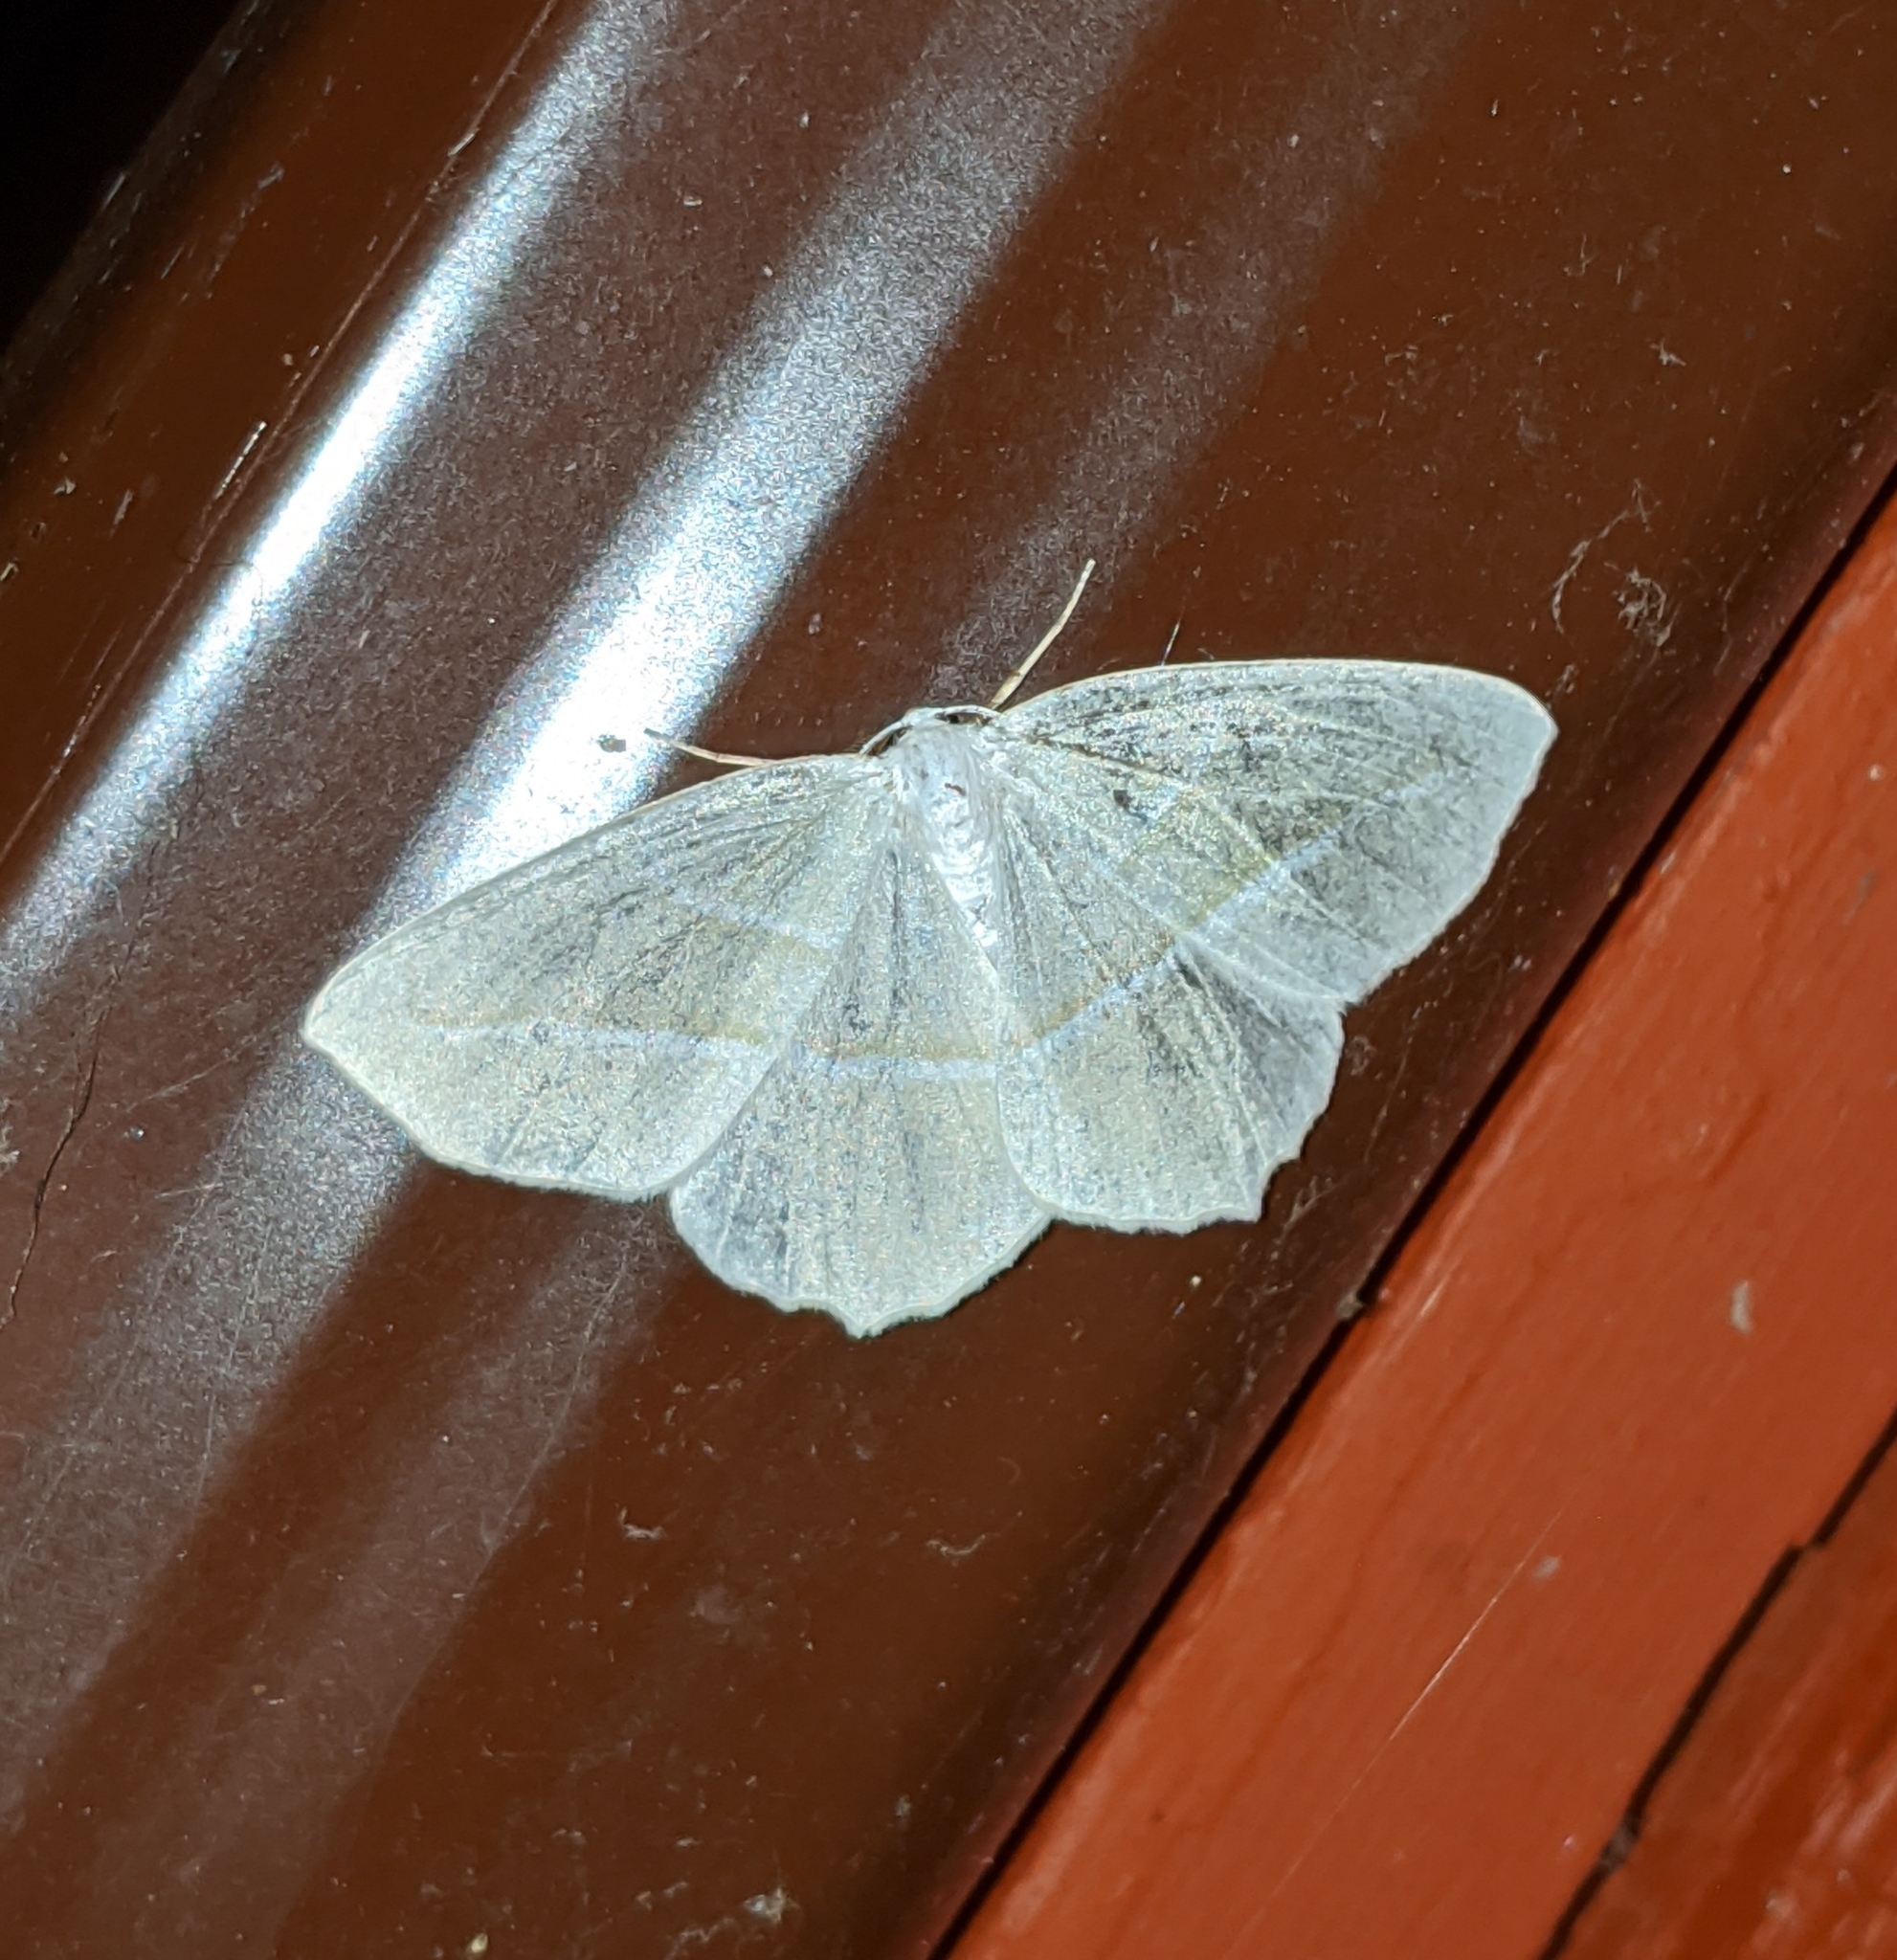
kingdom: Animalia
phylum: Arthropoda
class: Insecta
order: Lepidoptera
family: Geometridae
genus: Campaea
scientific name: Campaea perlata
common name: Fringed looper
